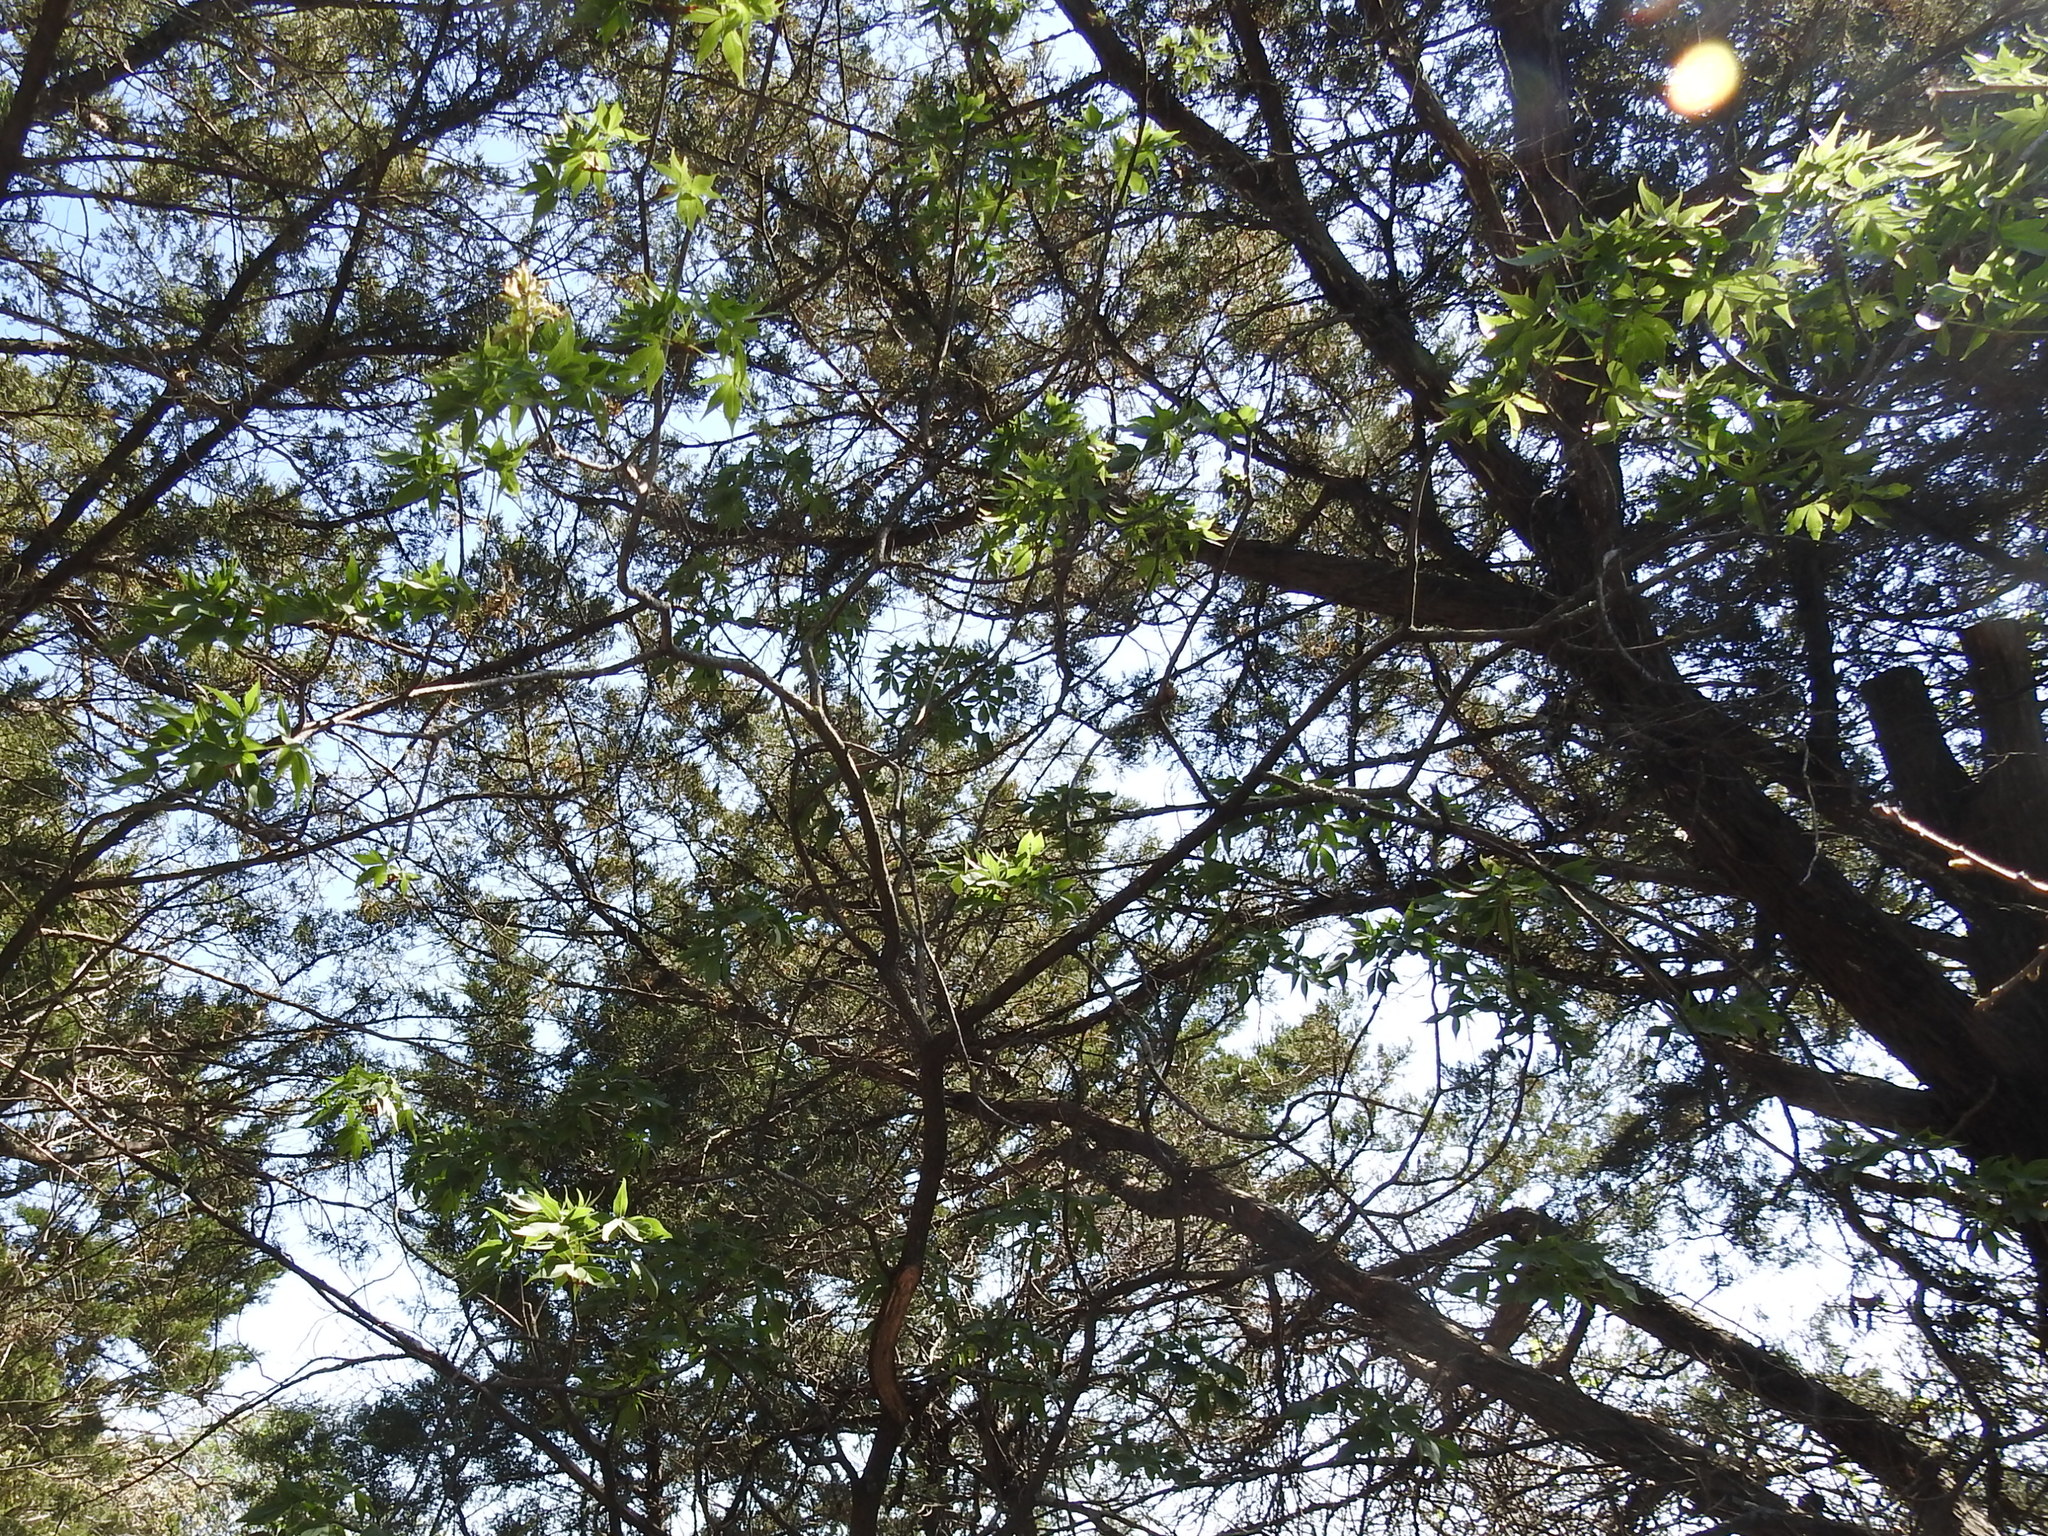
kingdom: Plantae
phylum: Tracheophyta
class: Magnoliopsida
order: Sapindales
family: Sapindaceae
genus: Aesculus
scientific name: Aesculus glabra
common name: Ohio buckeye
